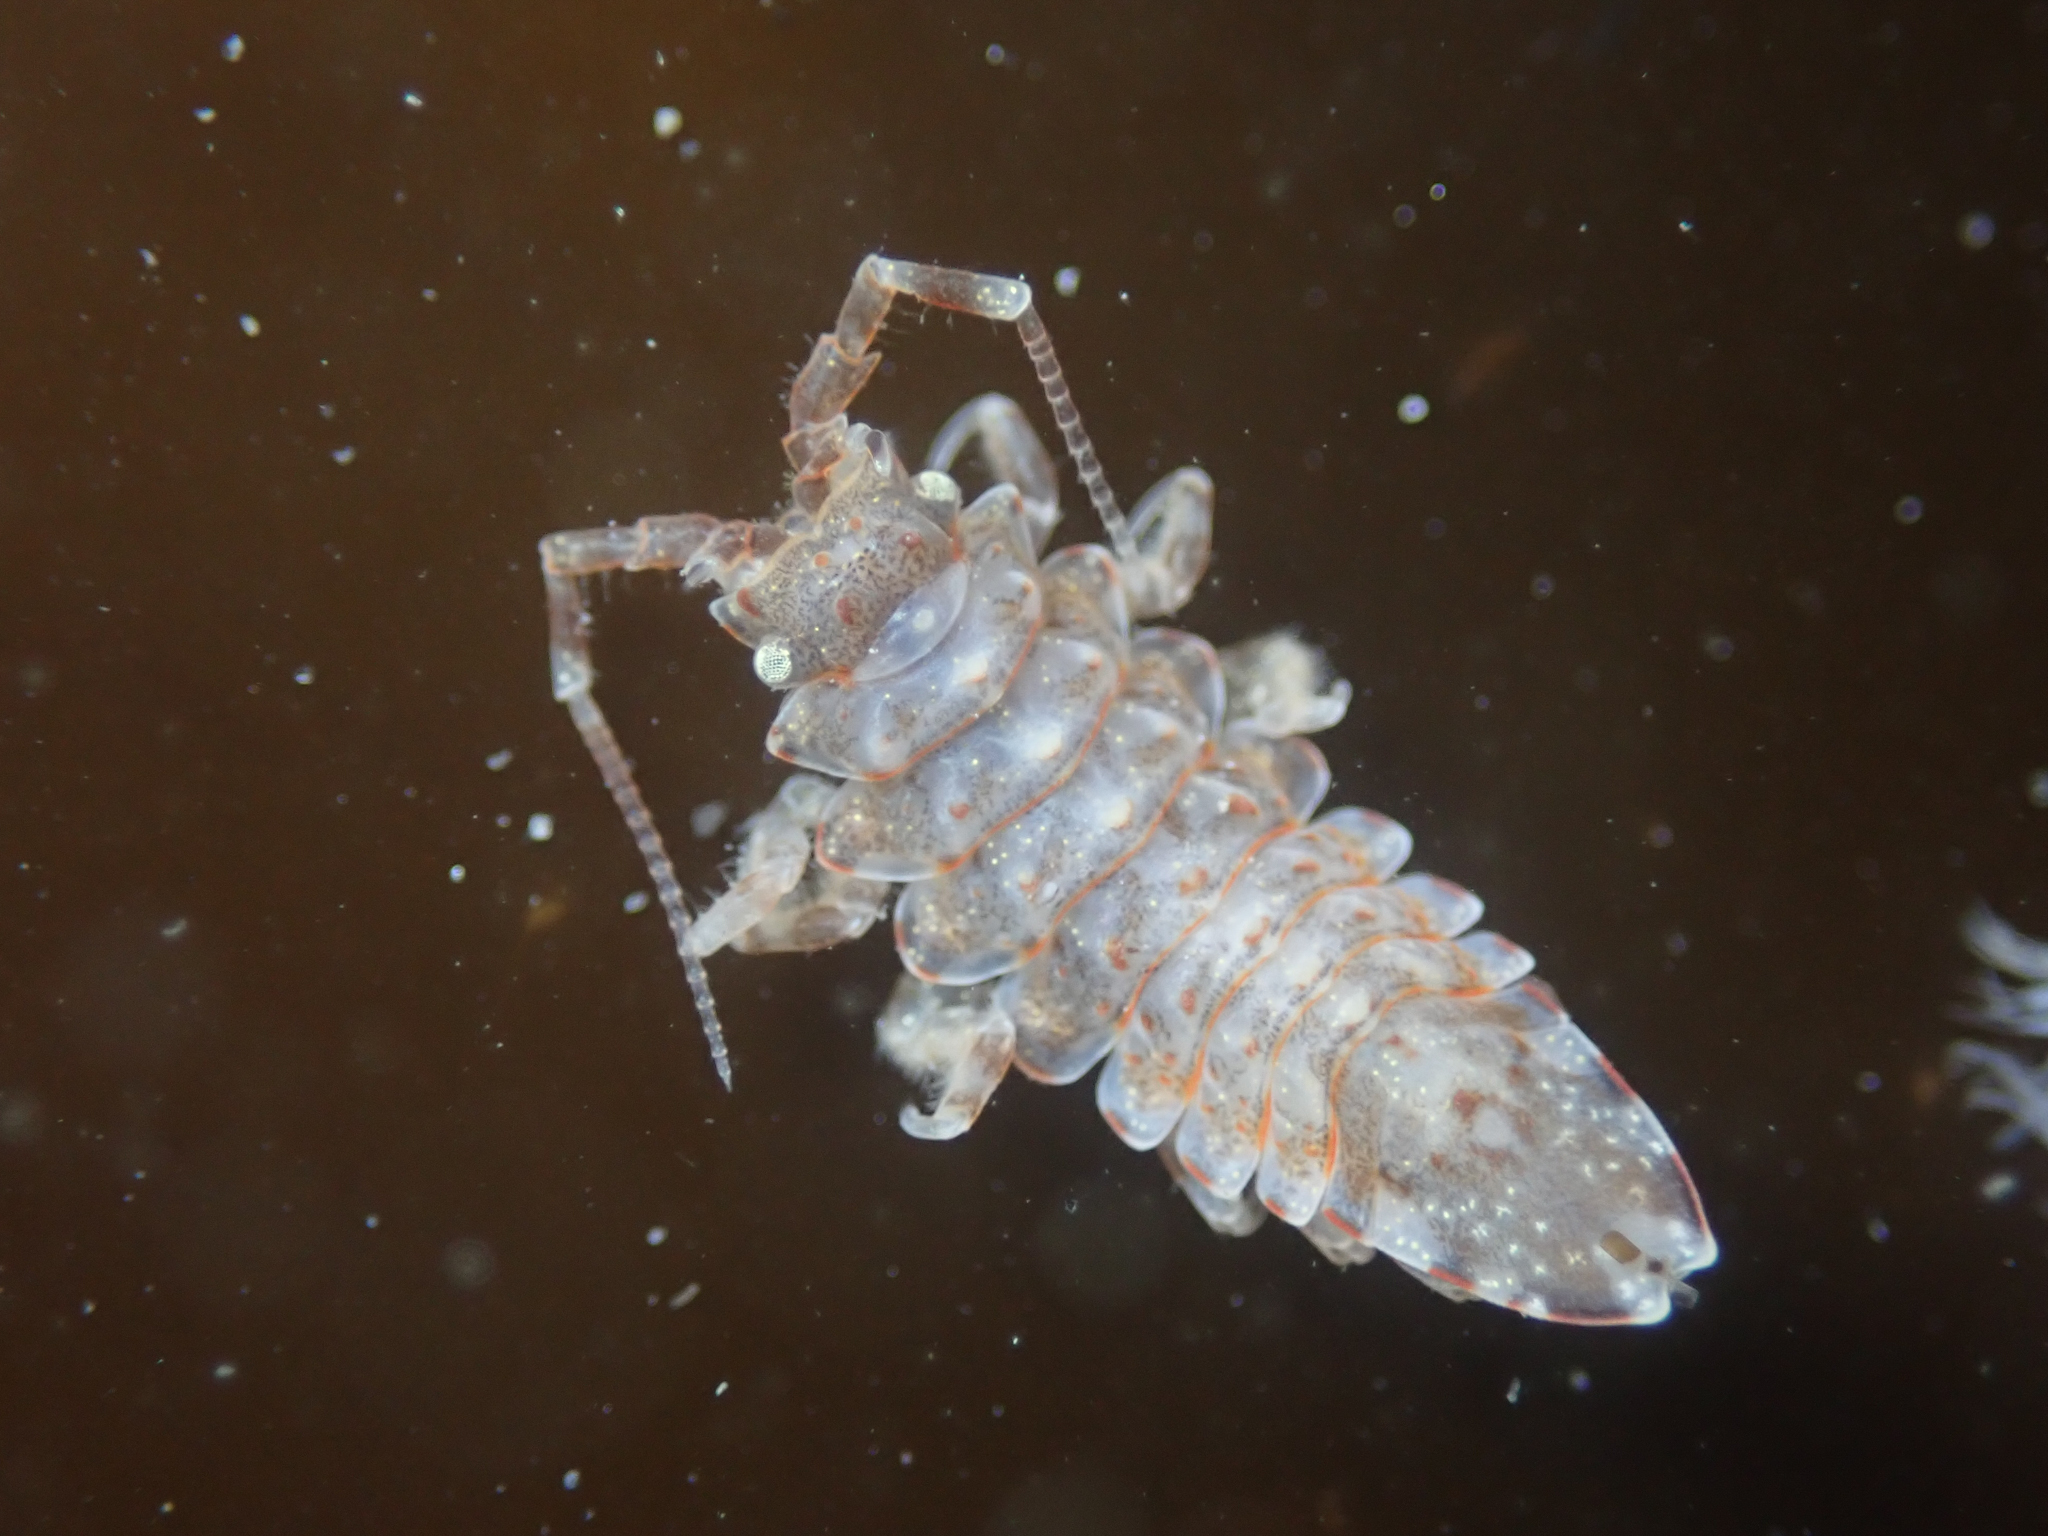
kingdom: Animalia
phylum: Arthropoda
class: Malacostraca
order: Isopoda
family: Idoteidae
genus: Synidotea
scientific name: Synidotea pettiboneae
